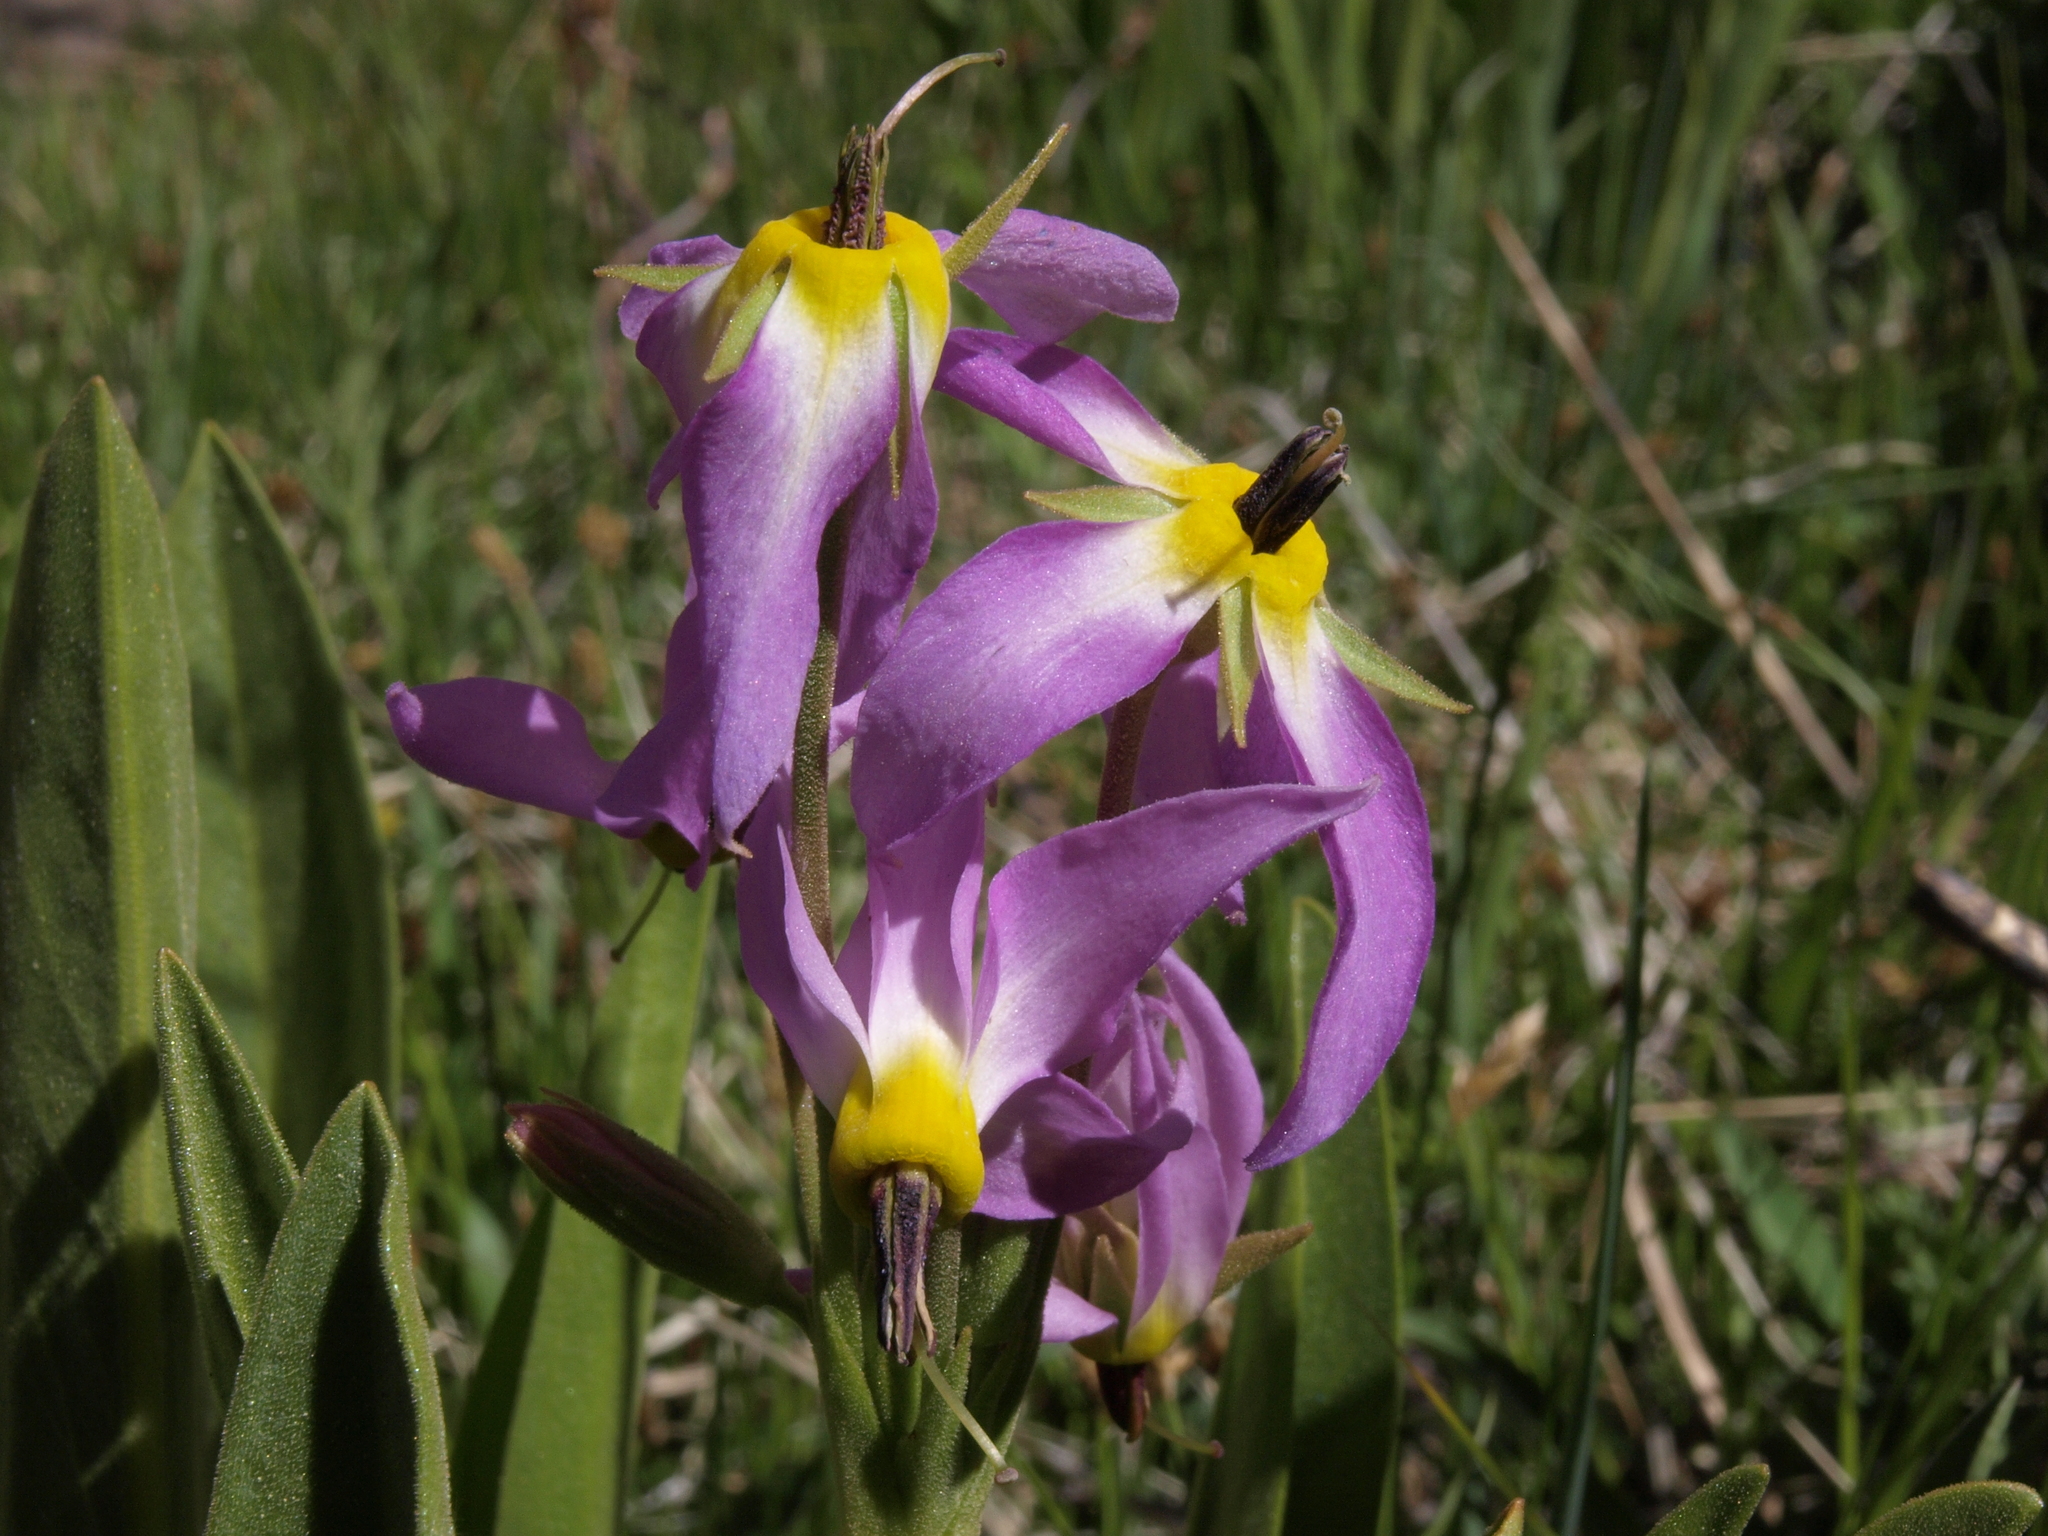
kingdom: Plantae
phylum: Tracheophyta
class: Magnoliopsida
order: Ericales
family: Primulaceae
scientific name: Primulaceae
